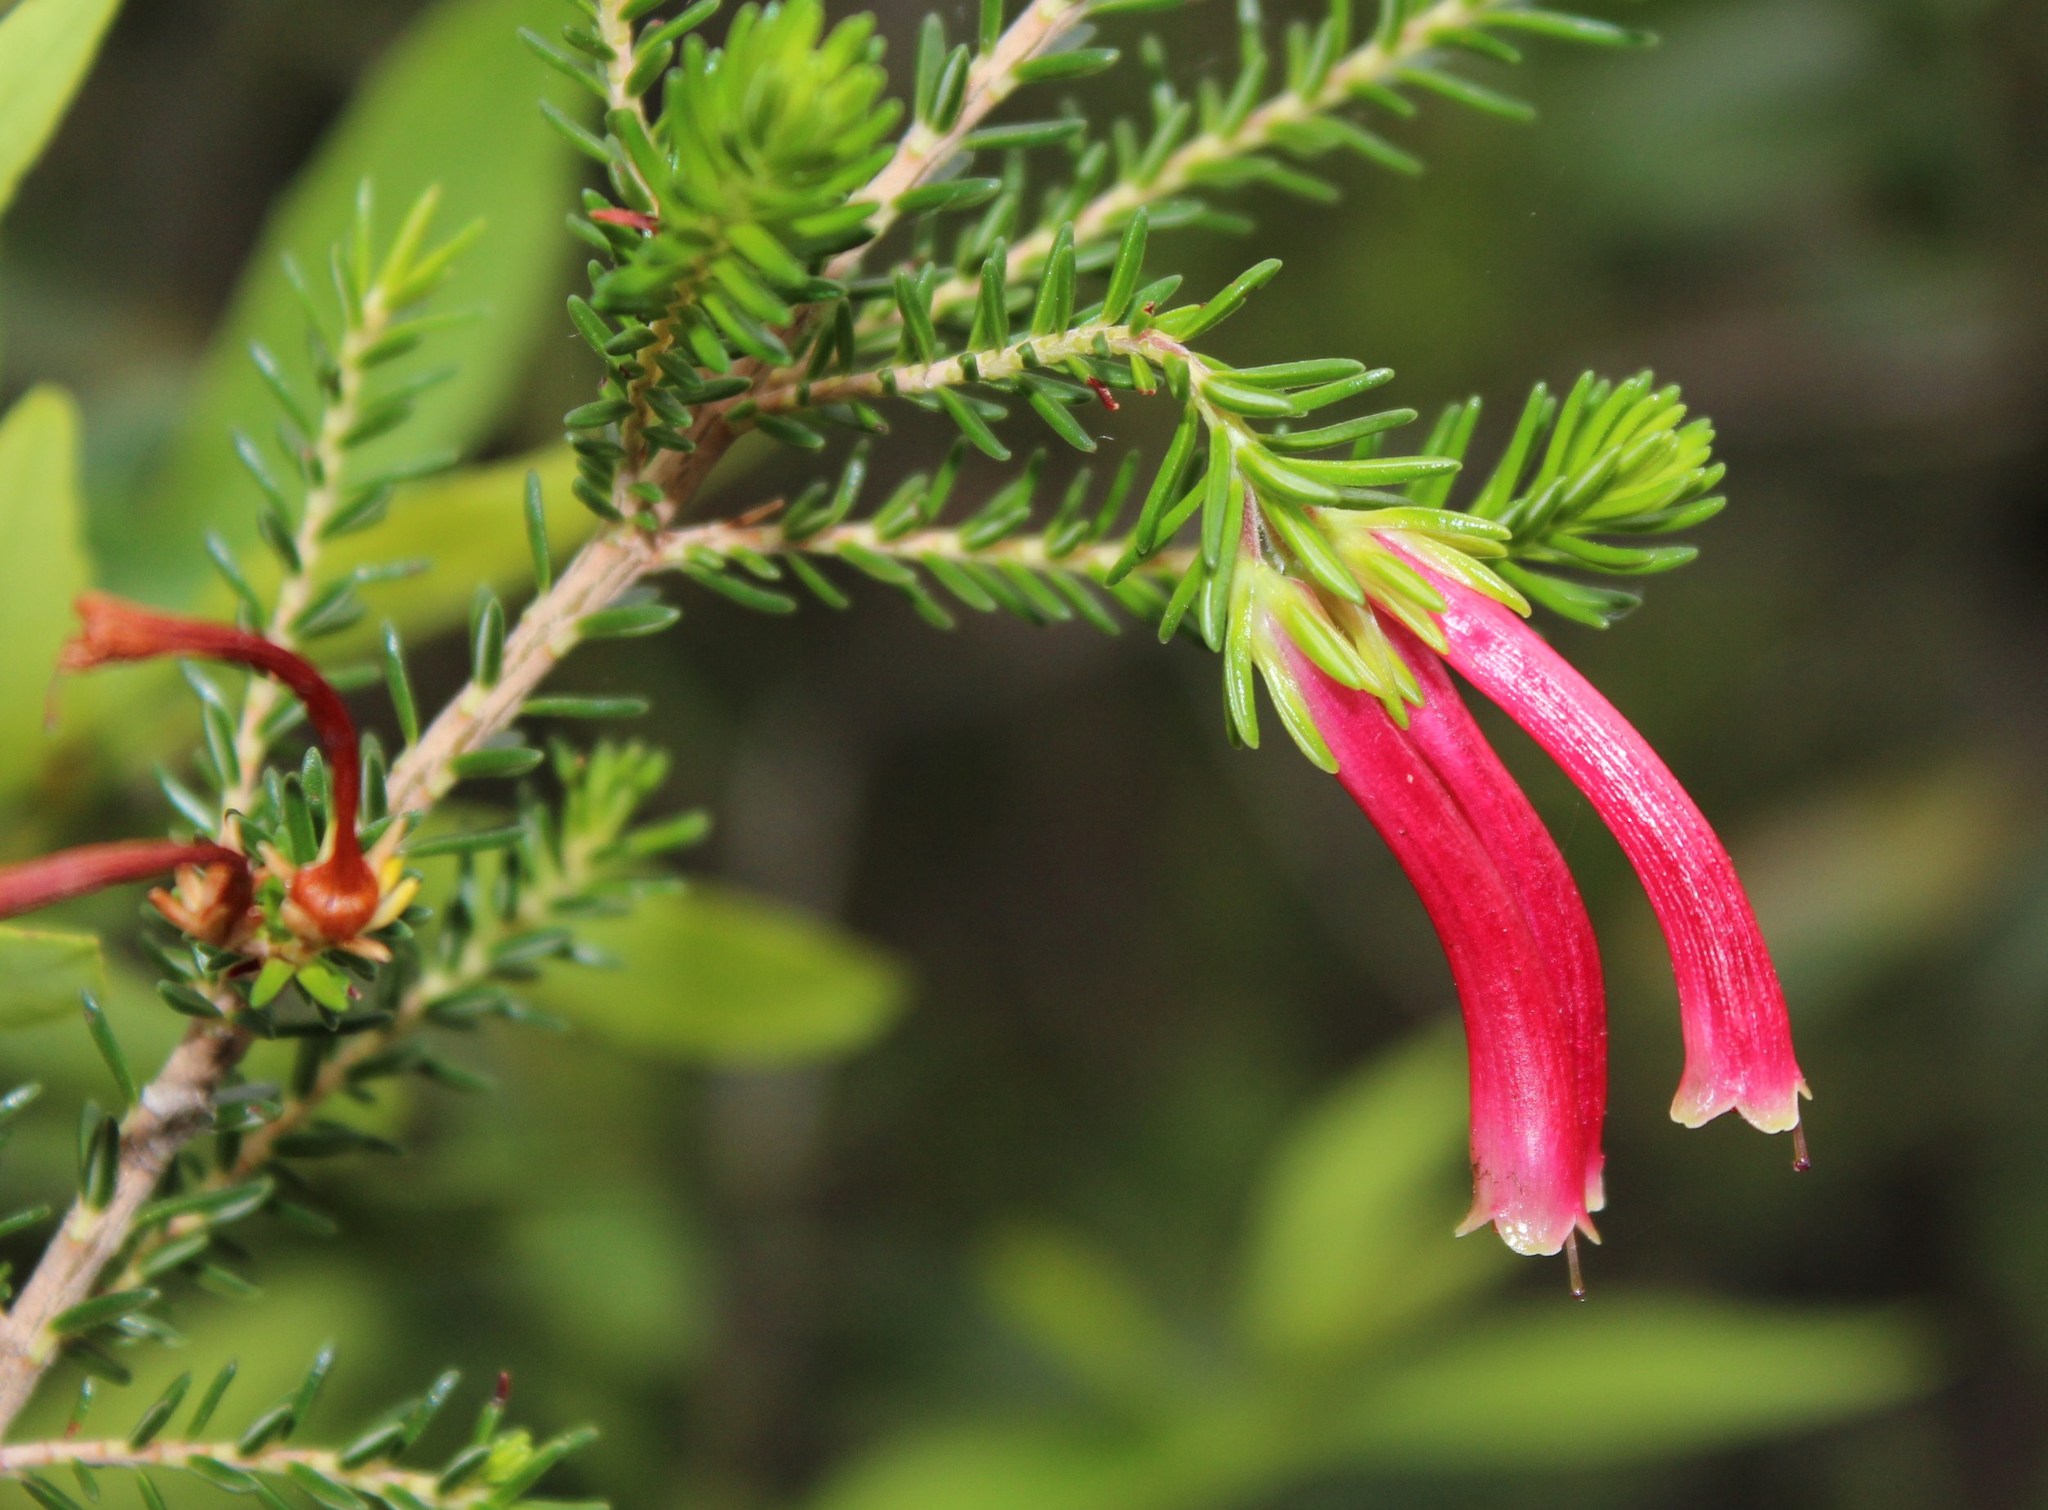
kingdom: Plantae
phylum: Tracheophyta
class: Magnoliopsida
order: Ericales
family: Ericaceae
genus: Erica
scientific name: Erica discolor
